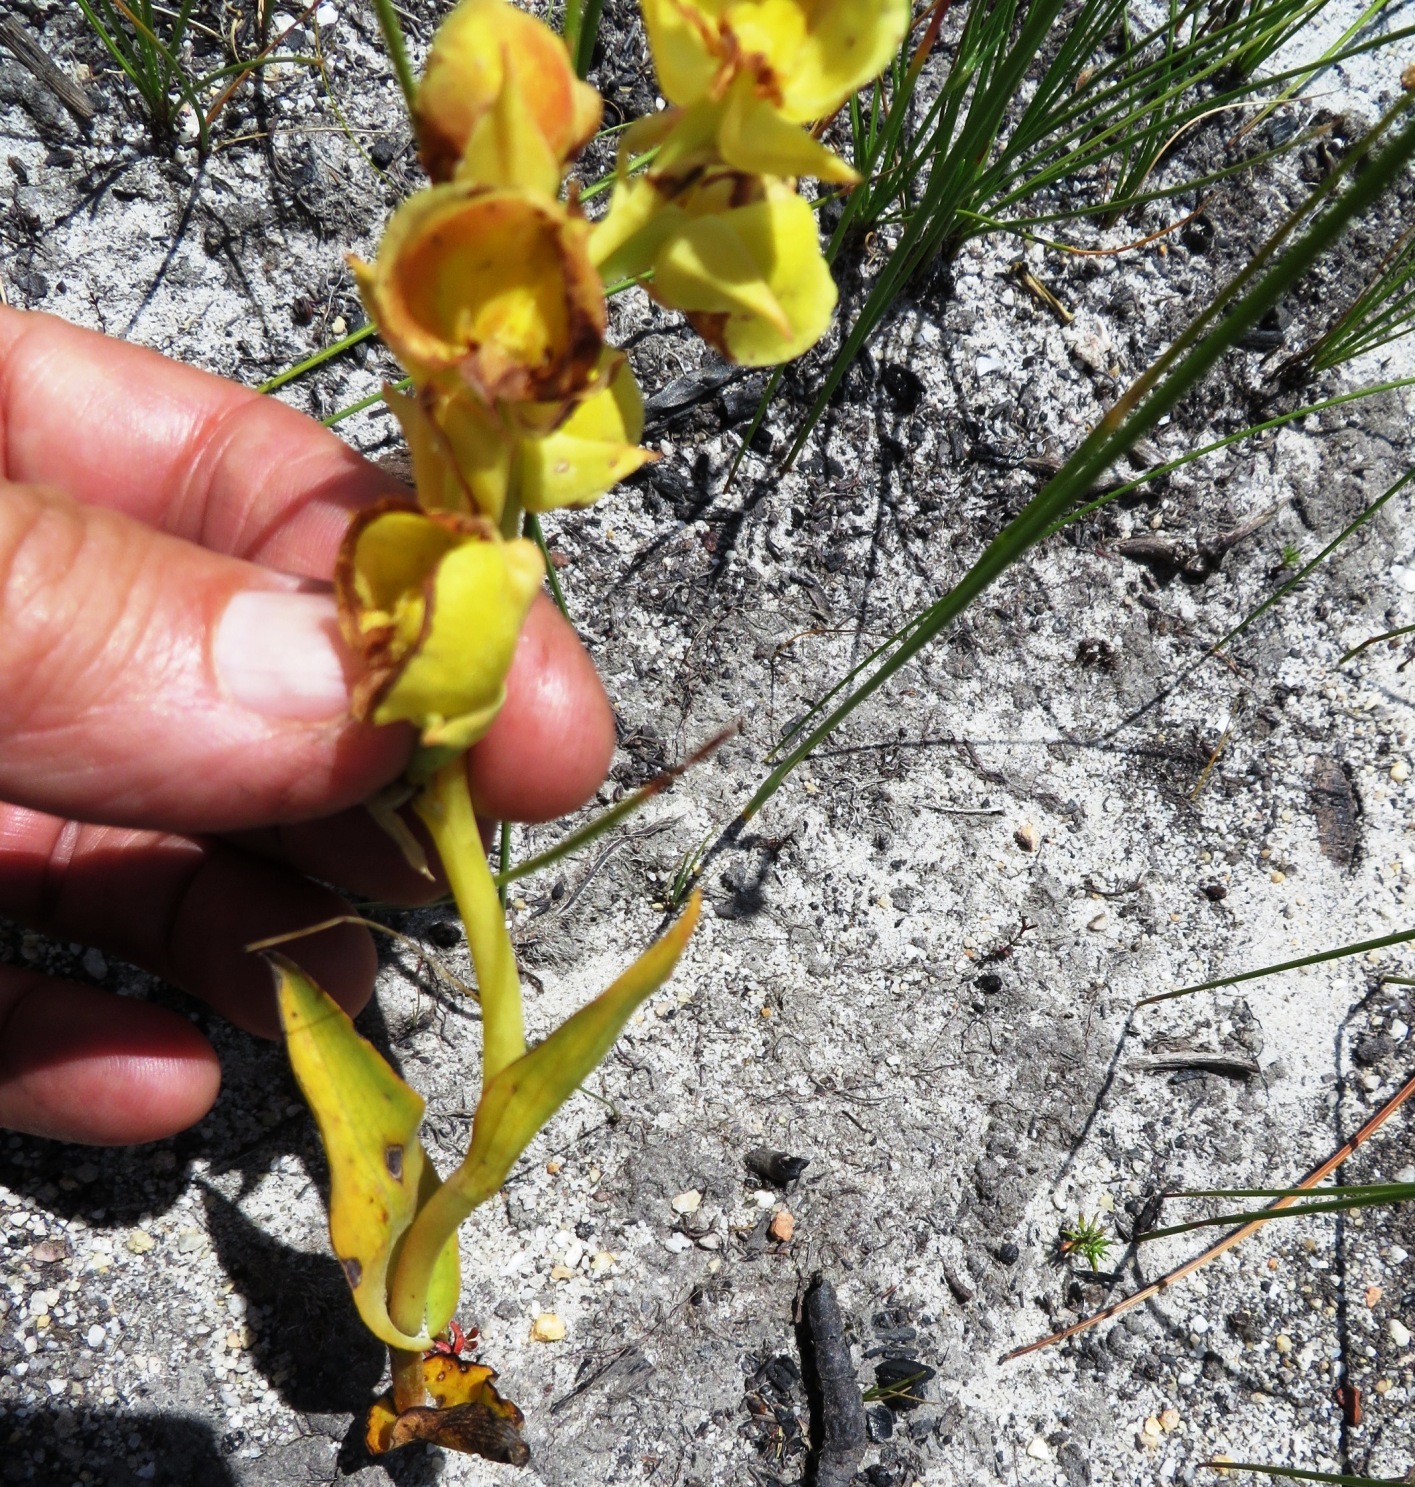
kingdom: Plantae
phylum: Tracheophyta
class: Liliopsida
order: Asparagales
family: Orchidaceae
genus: Pterygodium
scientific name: Pterygodium acutifolium
